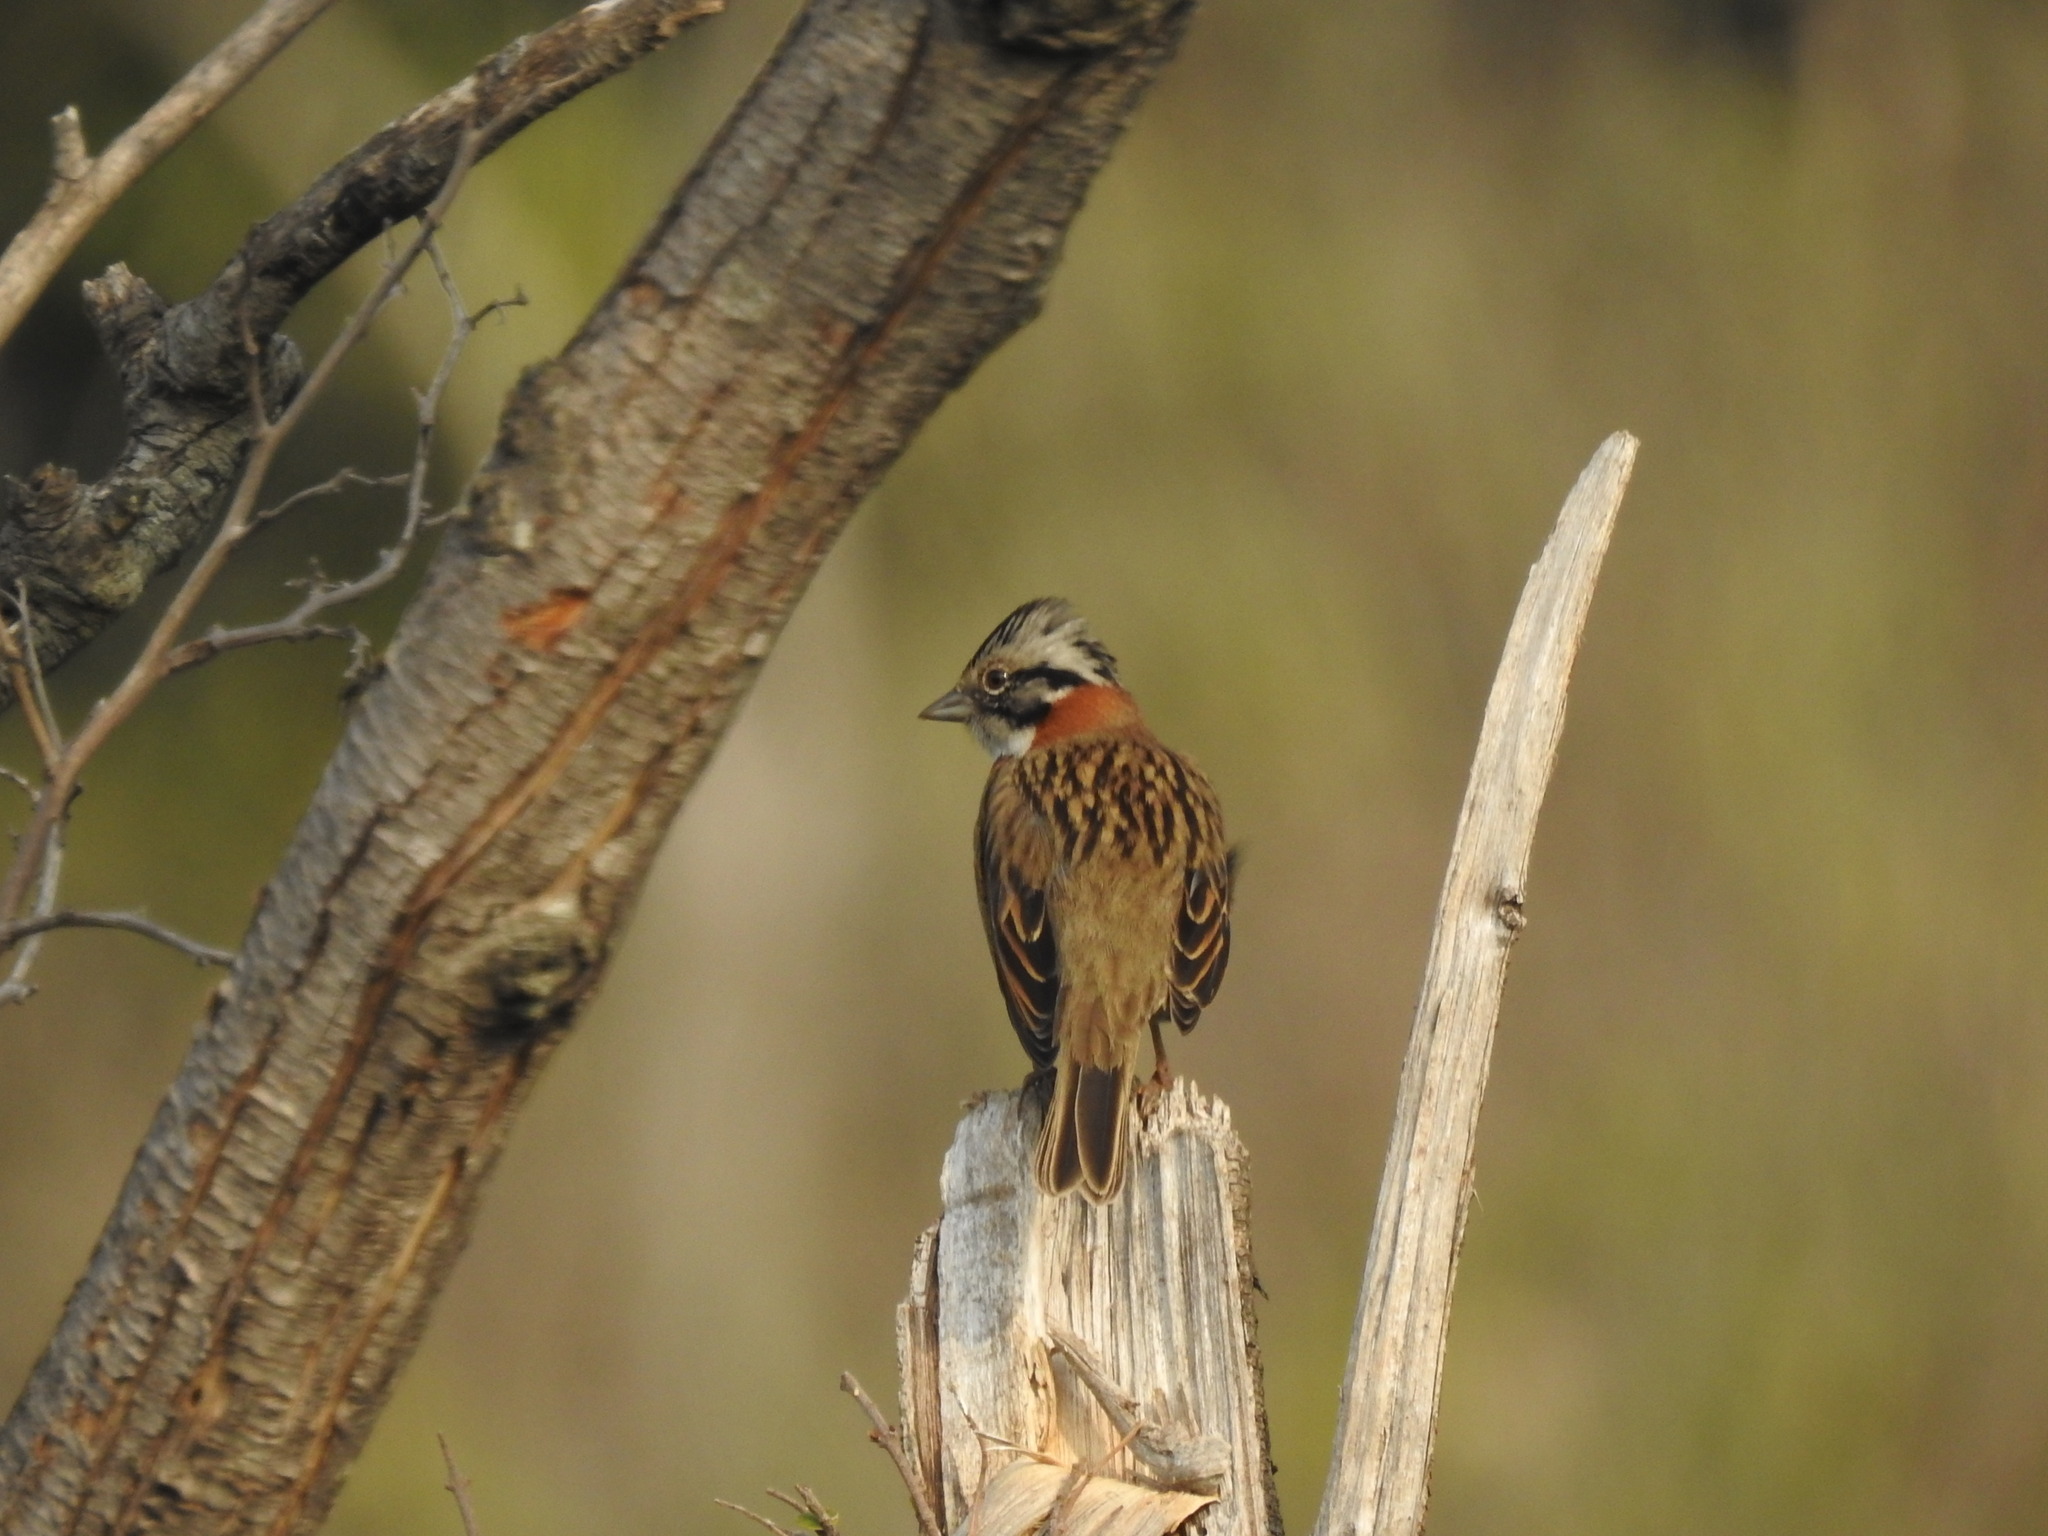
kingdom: Animalia
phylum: Chordata
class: Aves
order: Passeriformes
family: Passerellidae
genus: Zonotrichia
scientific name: Zonotrichia capensis
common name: Rufous-collared sparrow
